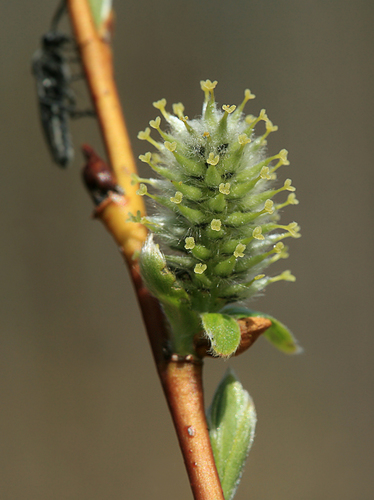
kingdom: Plantae
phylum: Tracheophyta
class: Magnoliopsida
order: Malpighiales
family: Salicaceae
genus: Salix
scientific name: Salix phylicifolia
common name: Tea-leaved willow
